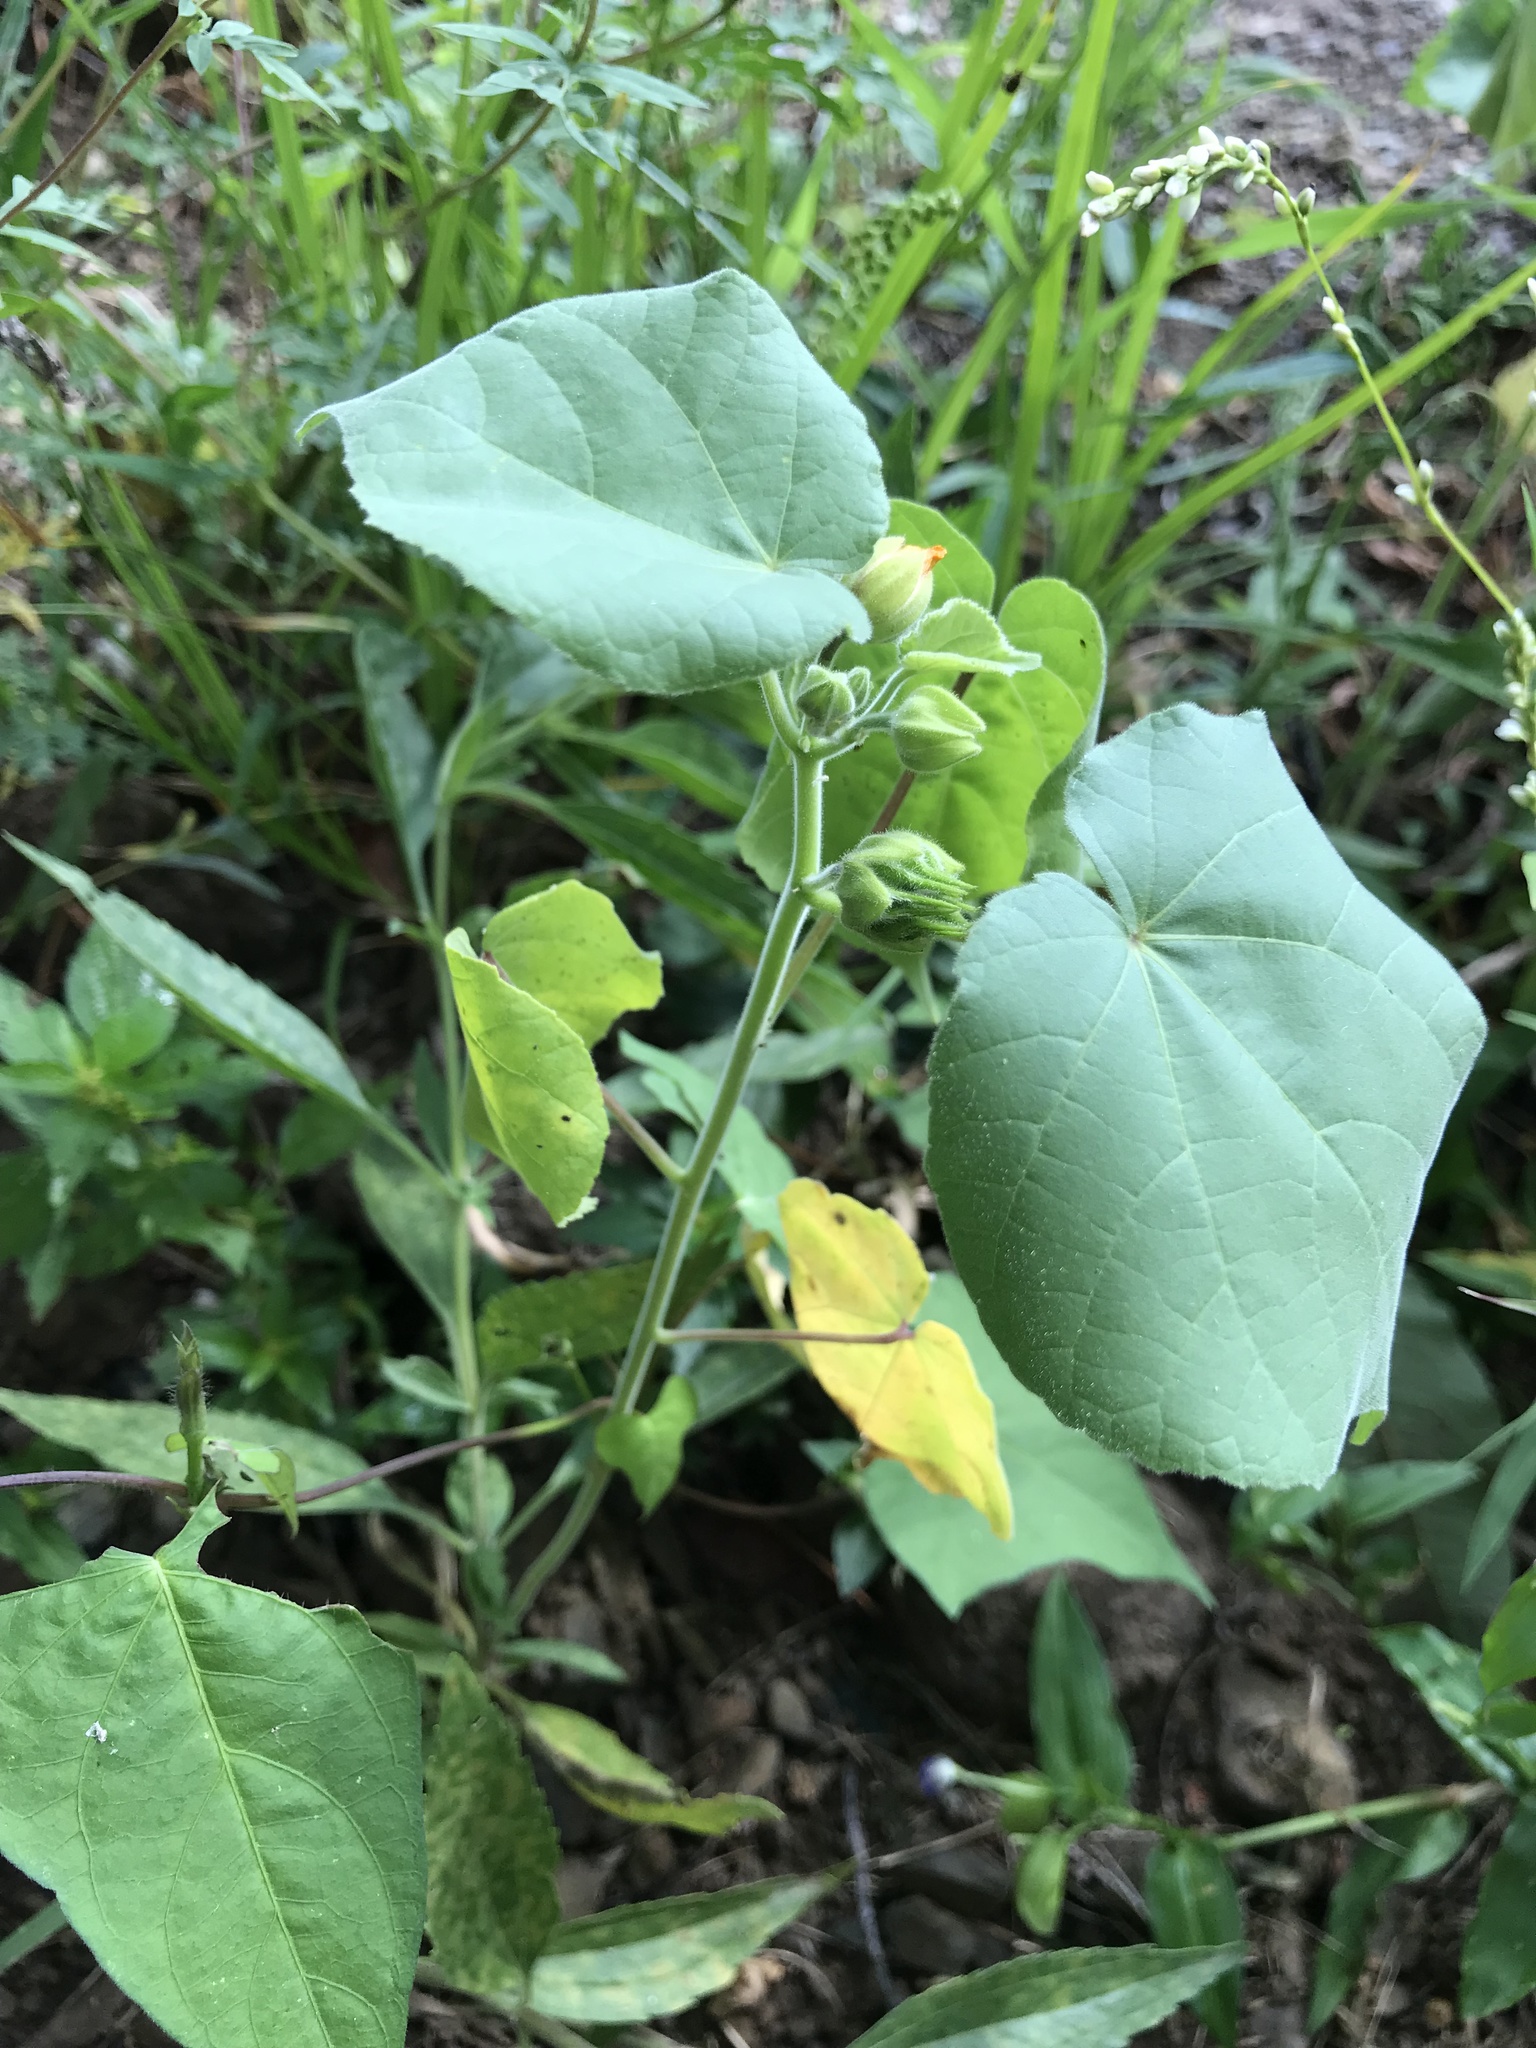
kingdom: Plantae
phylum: Tracheophyta
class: Magnoliopsida
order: Malvales
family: Malvaceae
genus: Abutilon
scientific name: Abutilon theophrasti
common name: Velvetleaf
